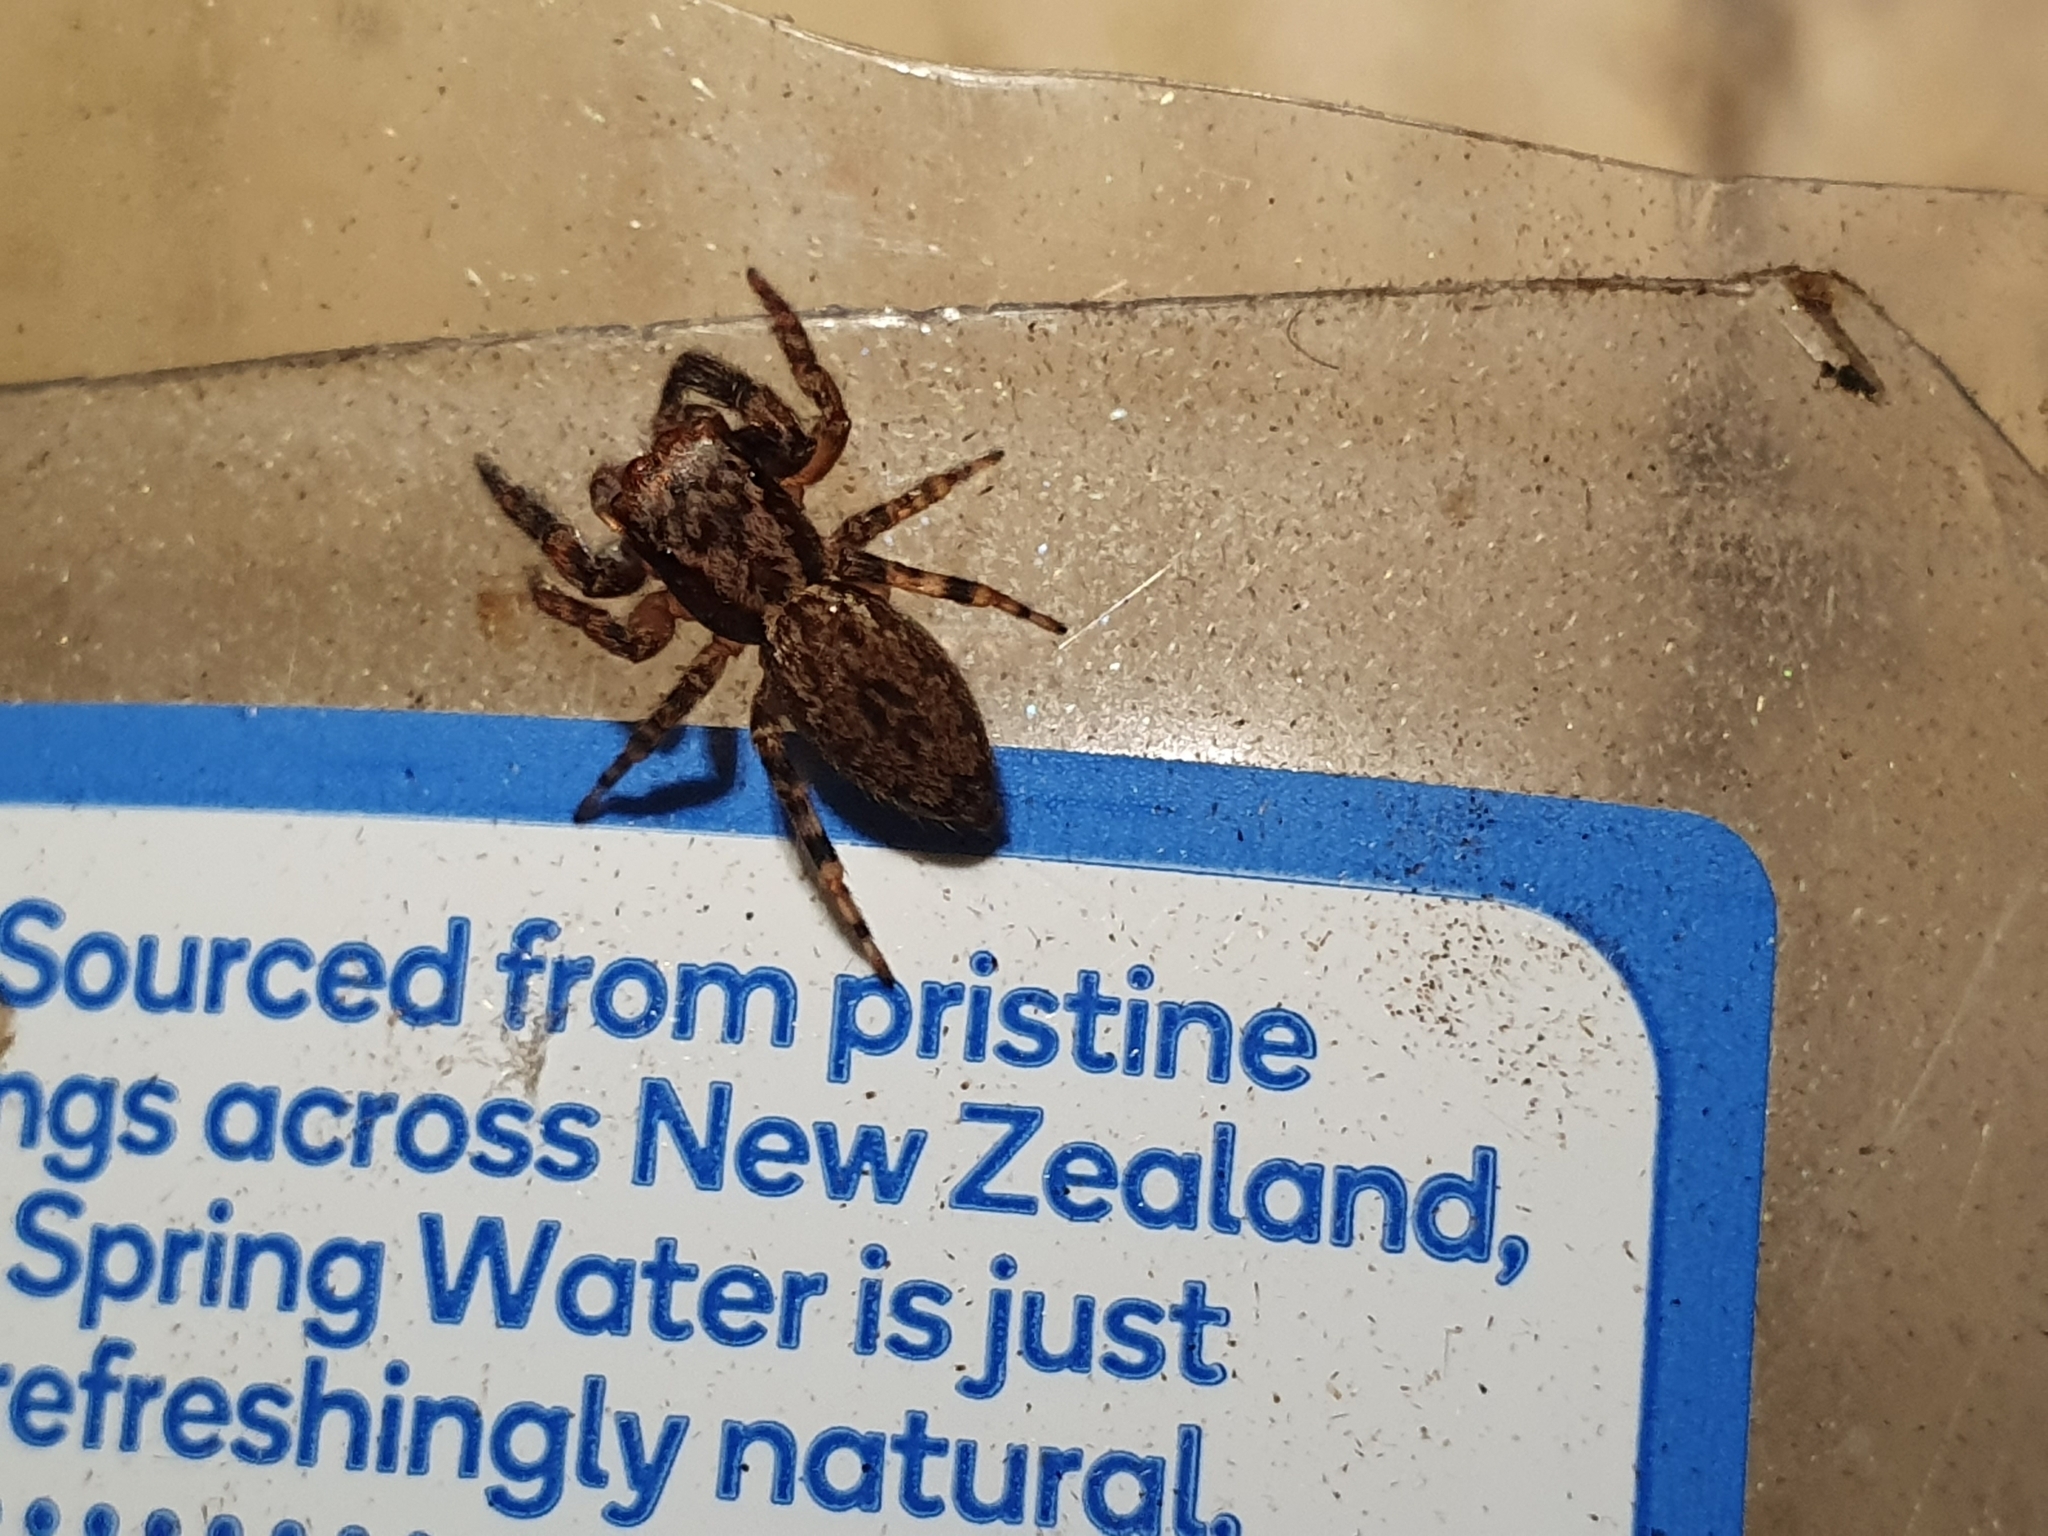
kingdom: Animalia
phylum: Arthropoda
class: Arachnida
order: Araneae
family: Salticidae
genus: Trite
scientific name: Trite auricoma
